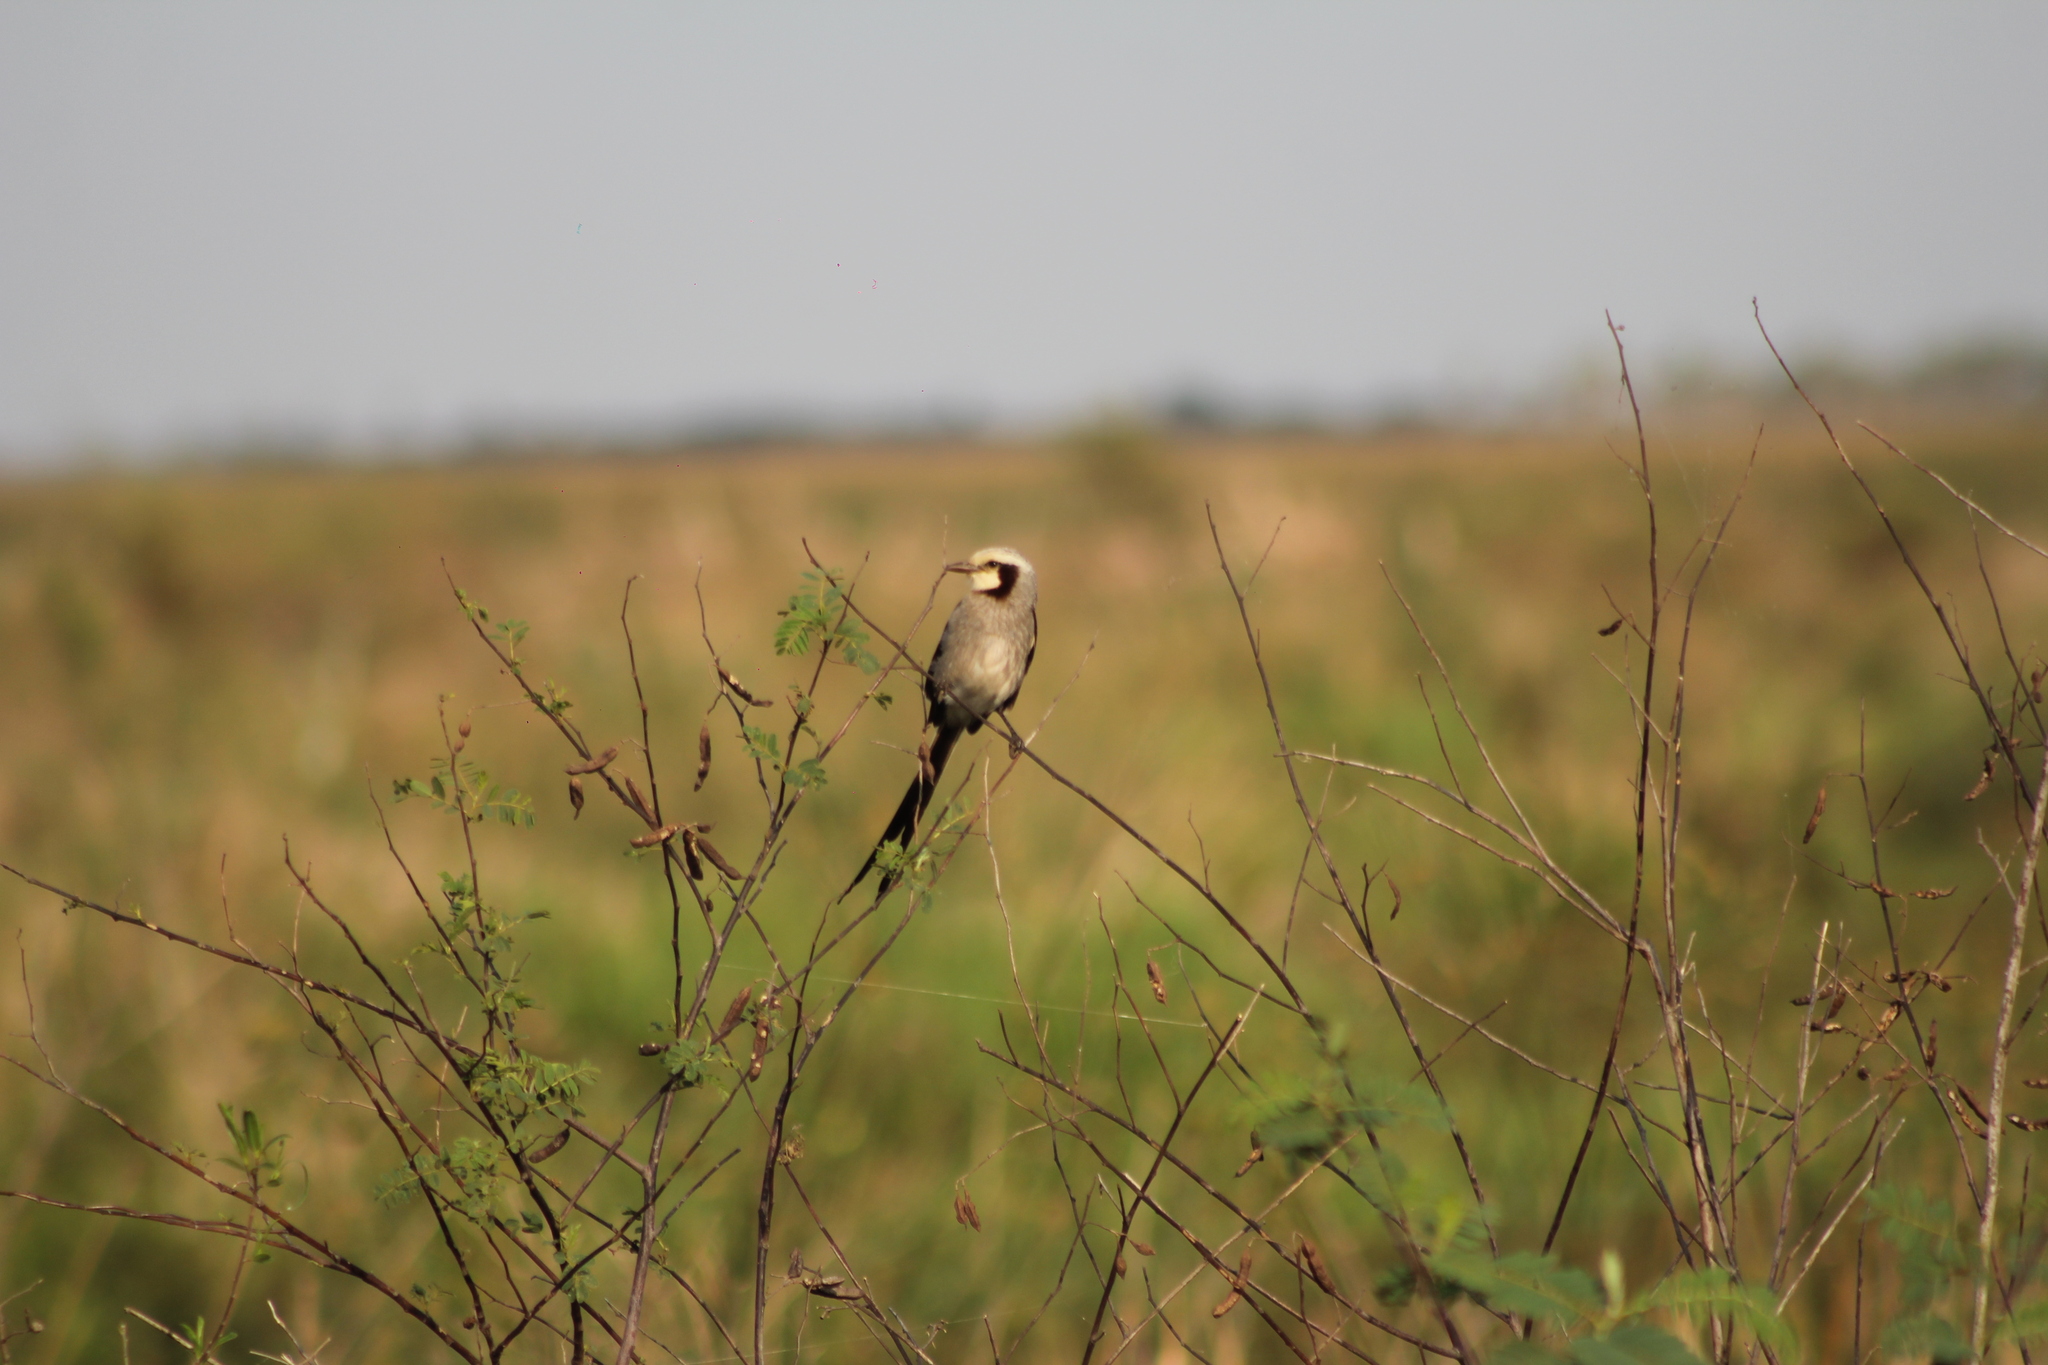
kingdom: Animalia
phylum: Chordata
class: Aves
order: Passeriformes
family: Tyrannidae
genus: Gubernetes
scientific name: Gubernetes yetapa
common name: Streamer-tailed tyrant
